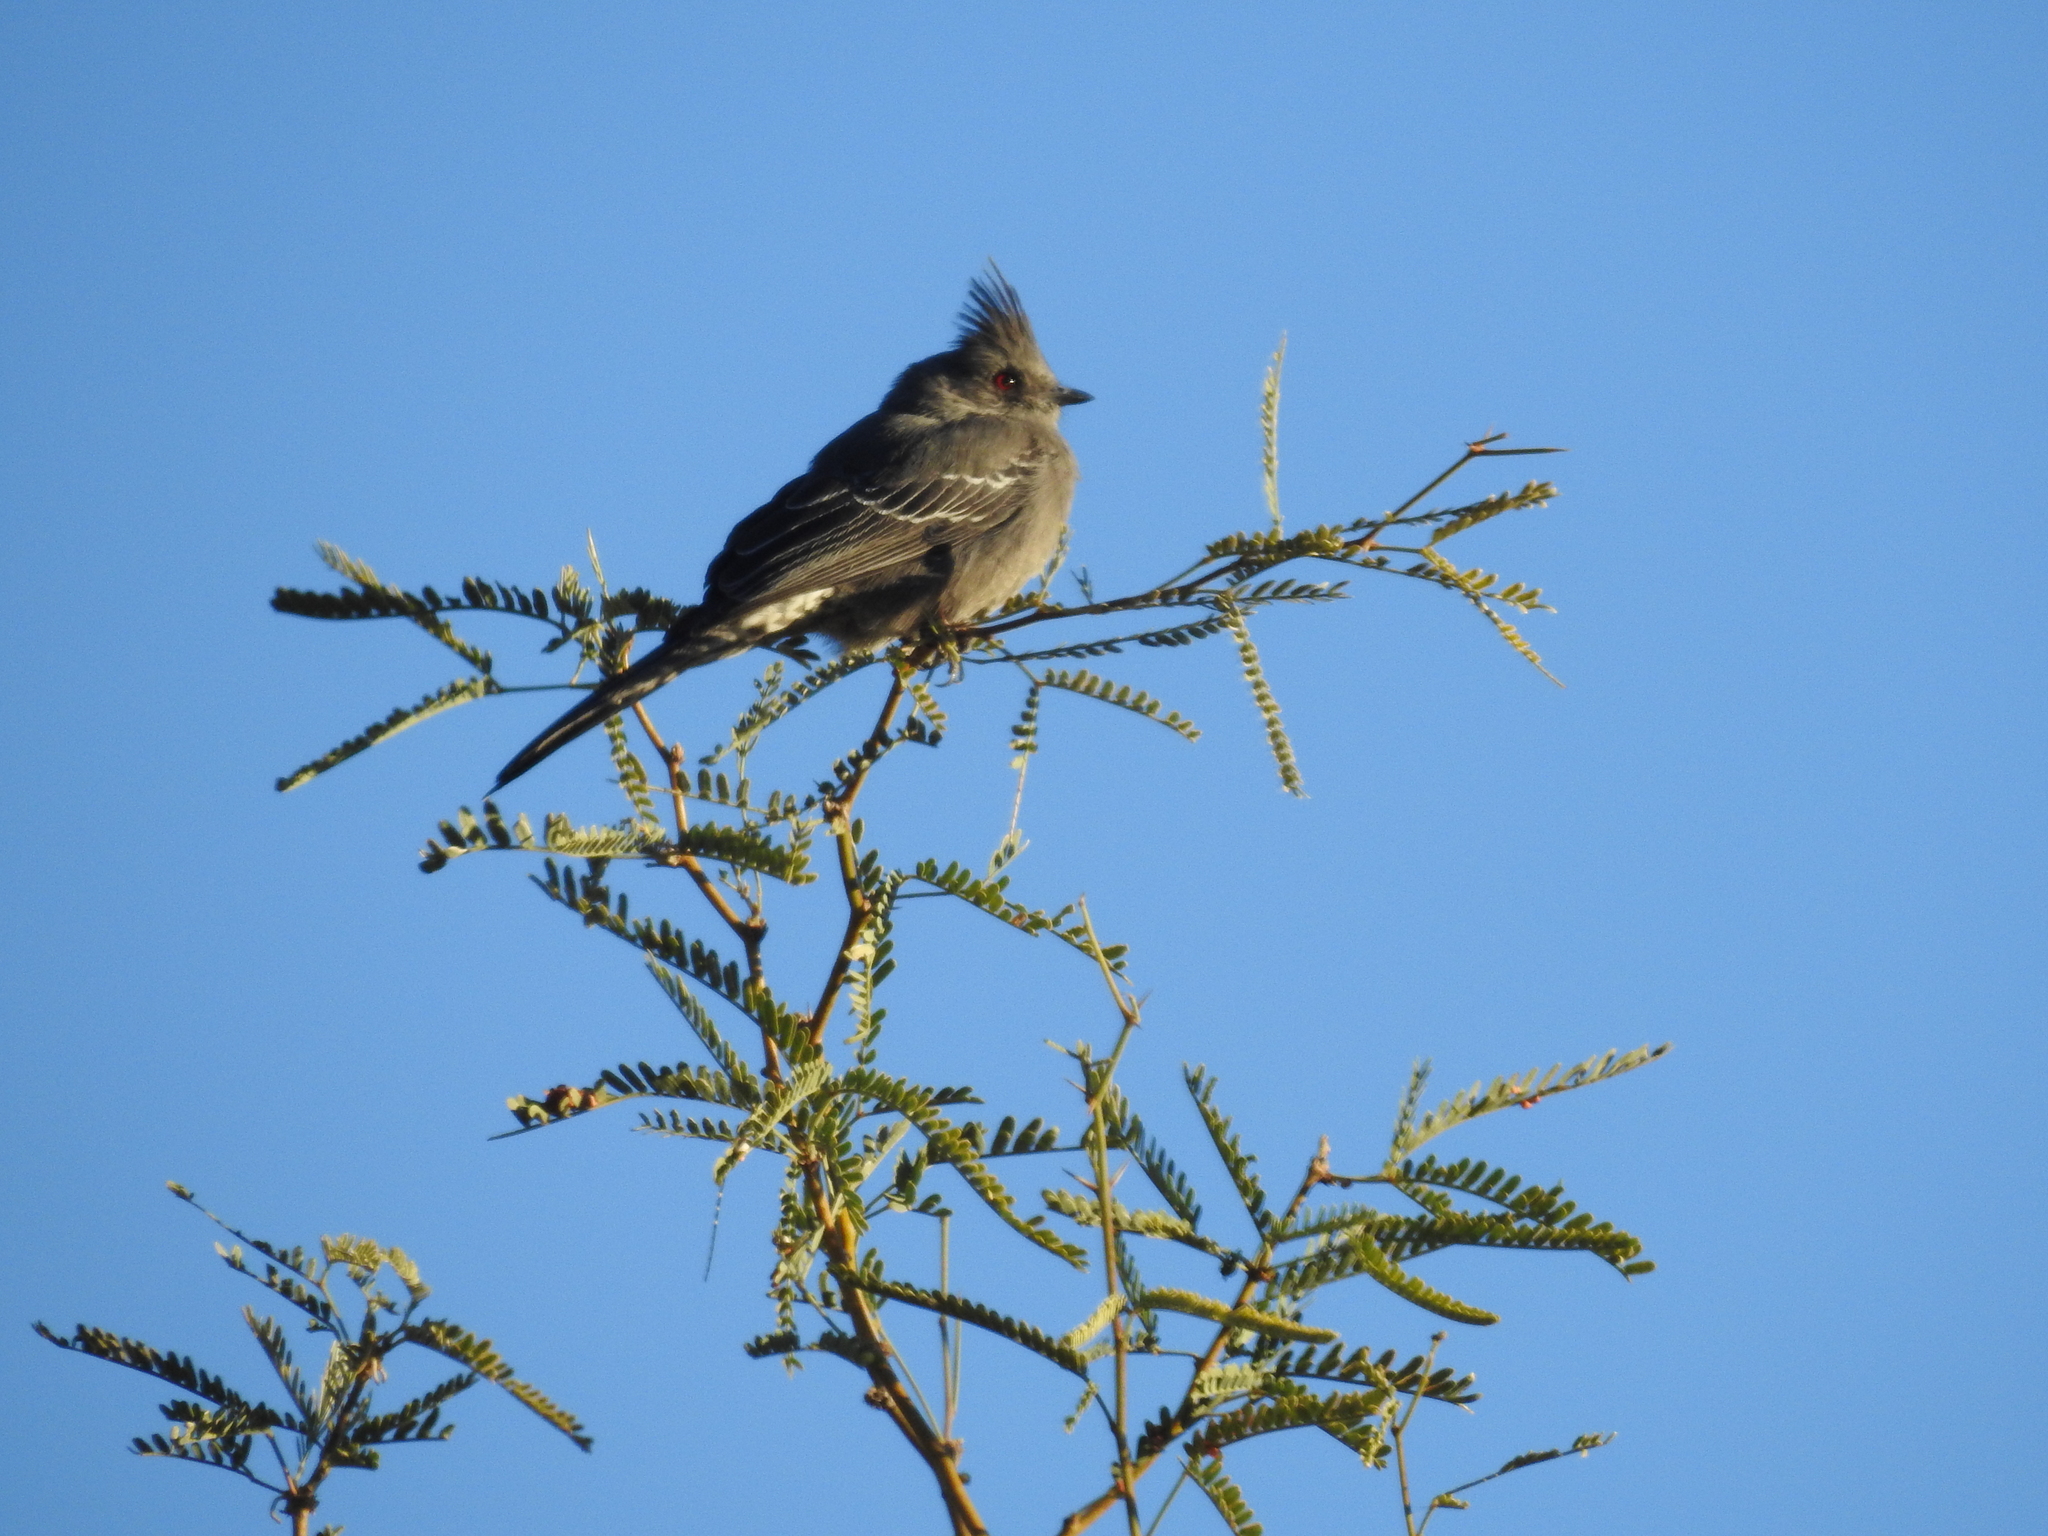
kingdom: Animalia
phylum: Chordata
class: Aves
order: Passeriformes
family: Ptilogonatidae
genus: Phainopepla
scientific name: Phainopepla nitens
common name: Phainopepla
